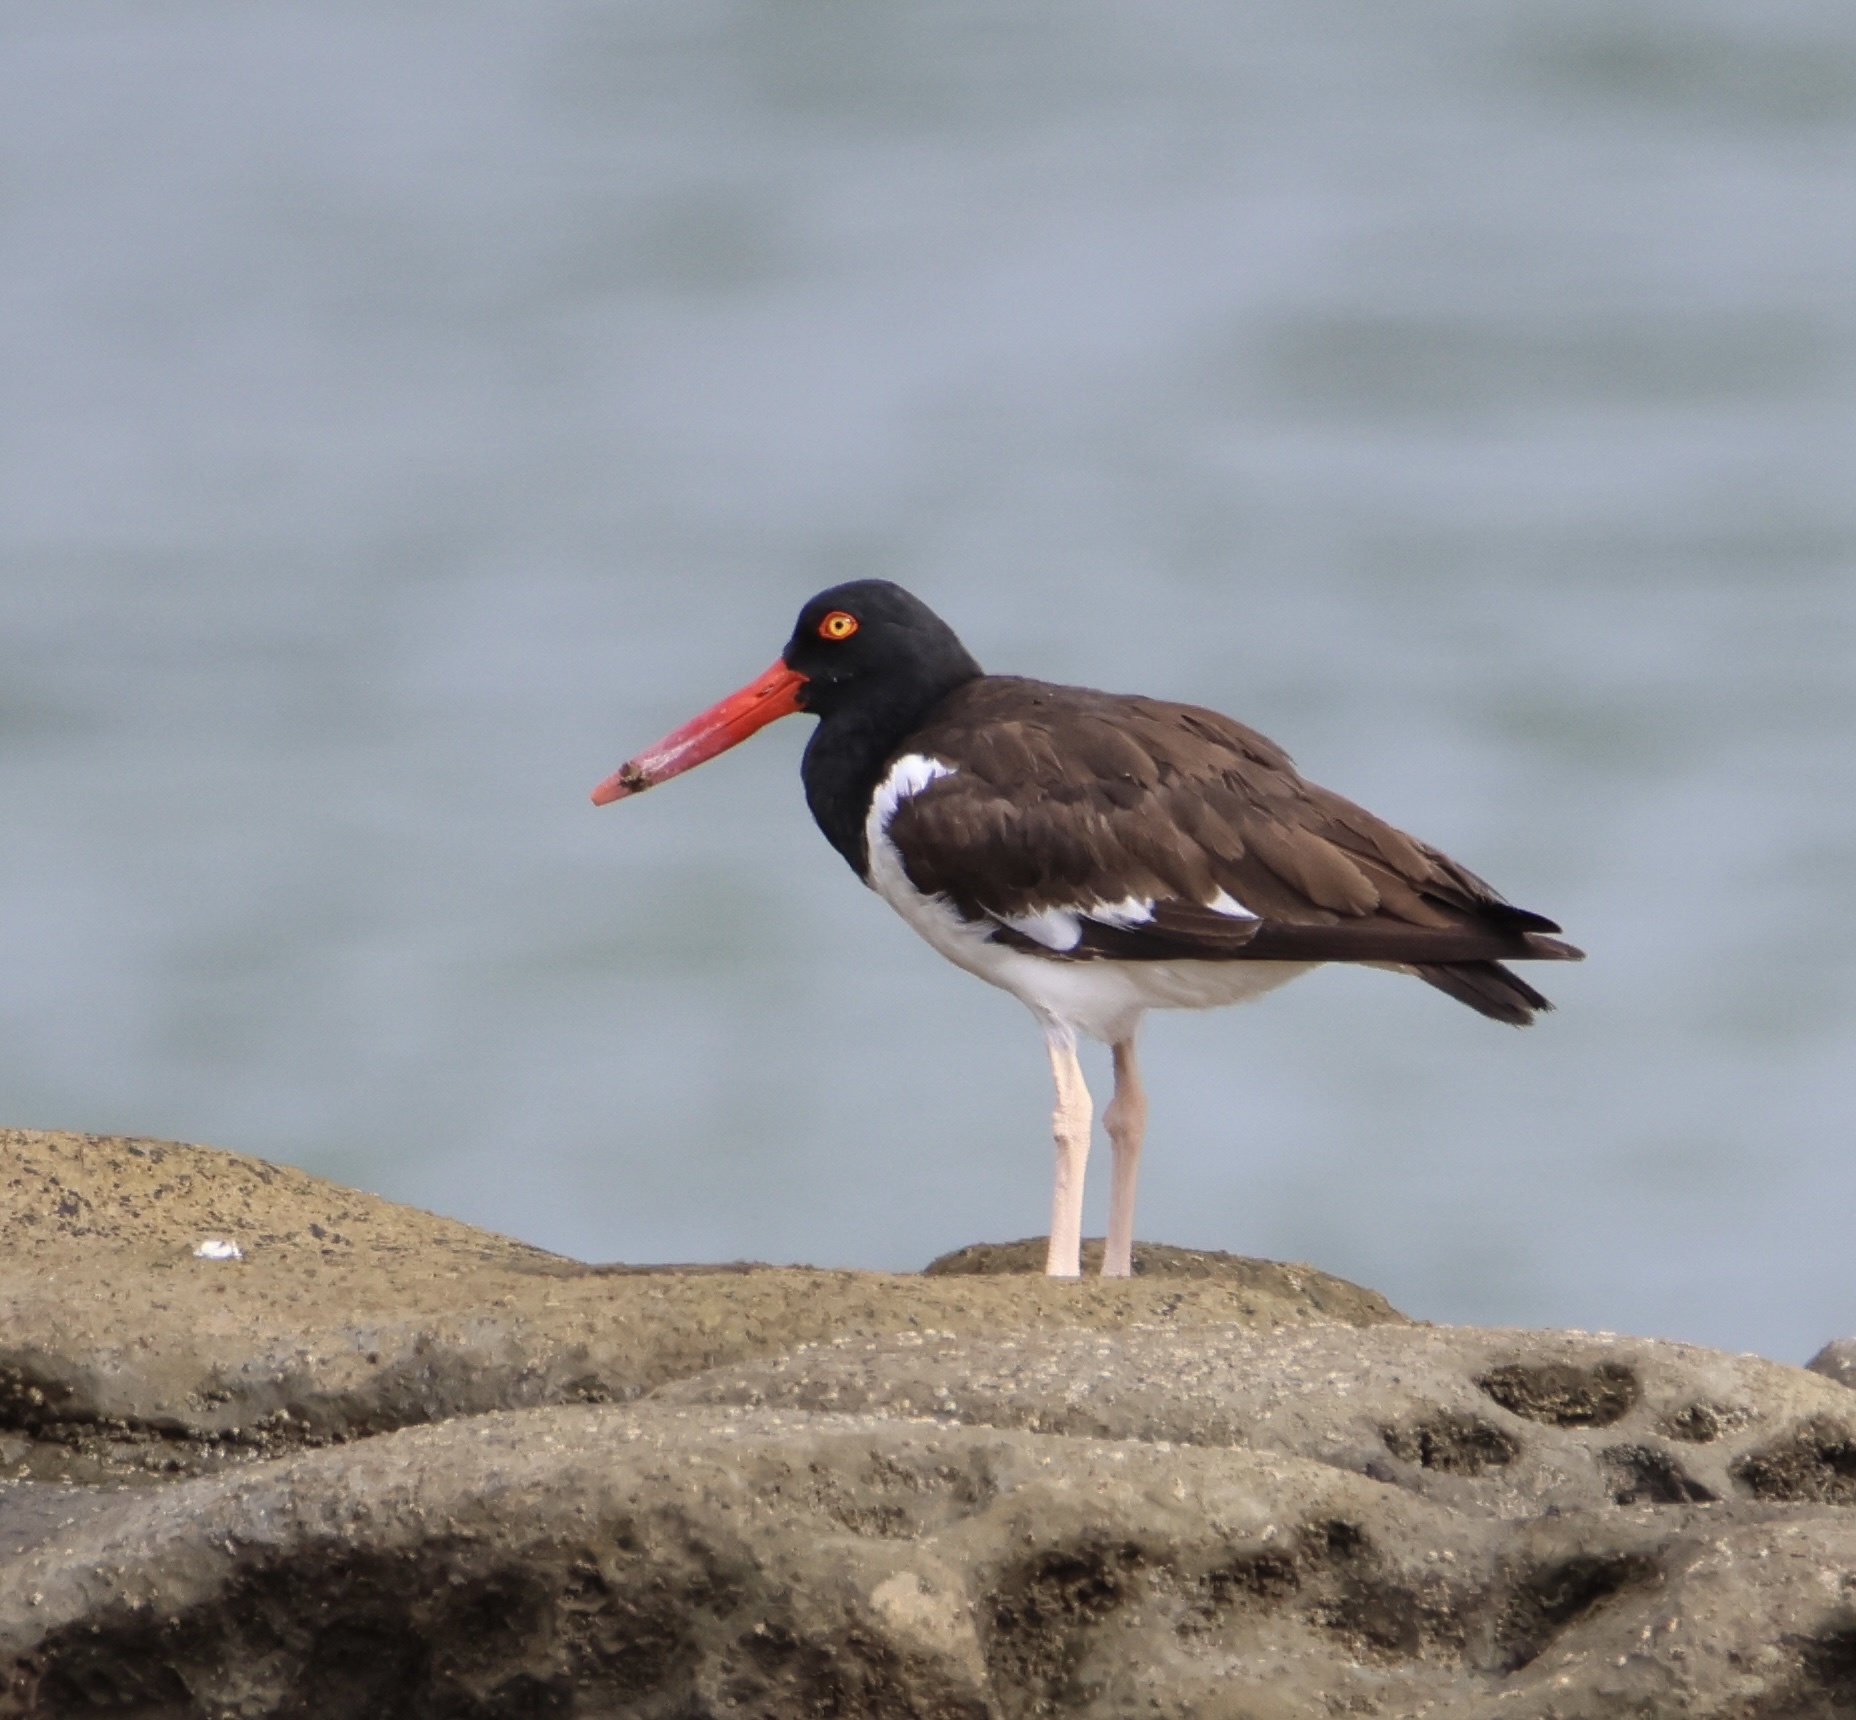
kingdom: Animalia
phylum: Chordata
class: Aves
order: Charadriiformes
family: Haematopodidae
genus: Haematopus
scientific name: Haematopus palliatus
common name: American oystercatcher
